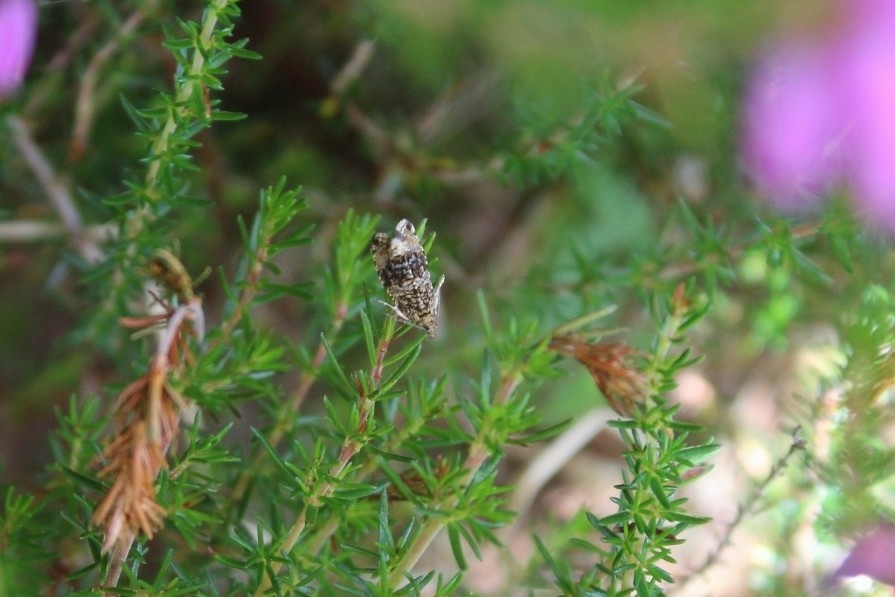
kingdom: Animalia
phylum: Arthropoda
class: Insecta
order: Lepidoptera
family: Tortricidae
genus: Syricoris
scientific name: Syricoris lacunana
